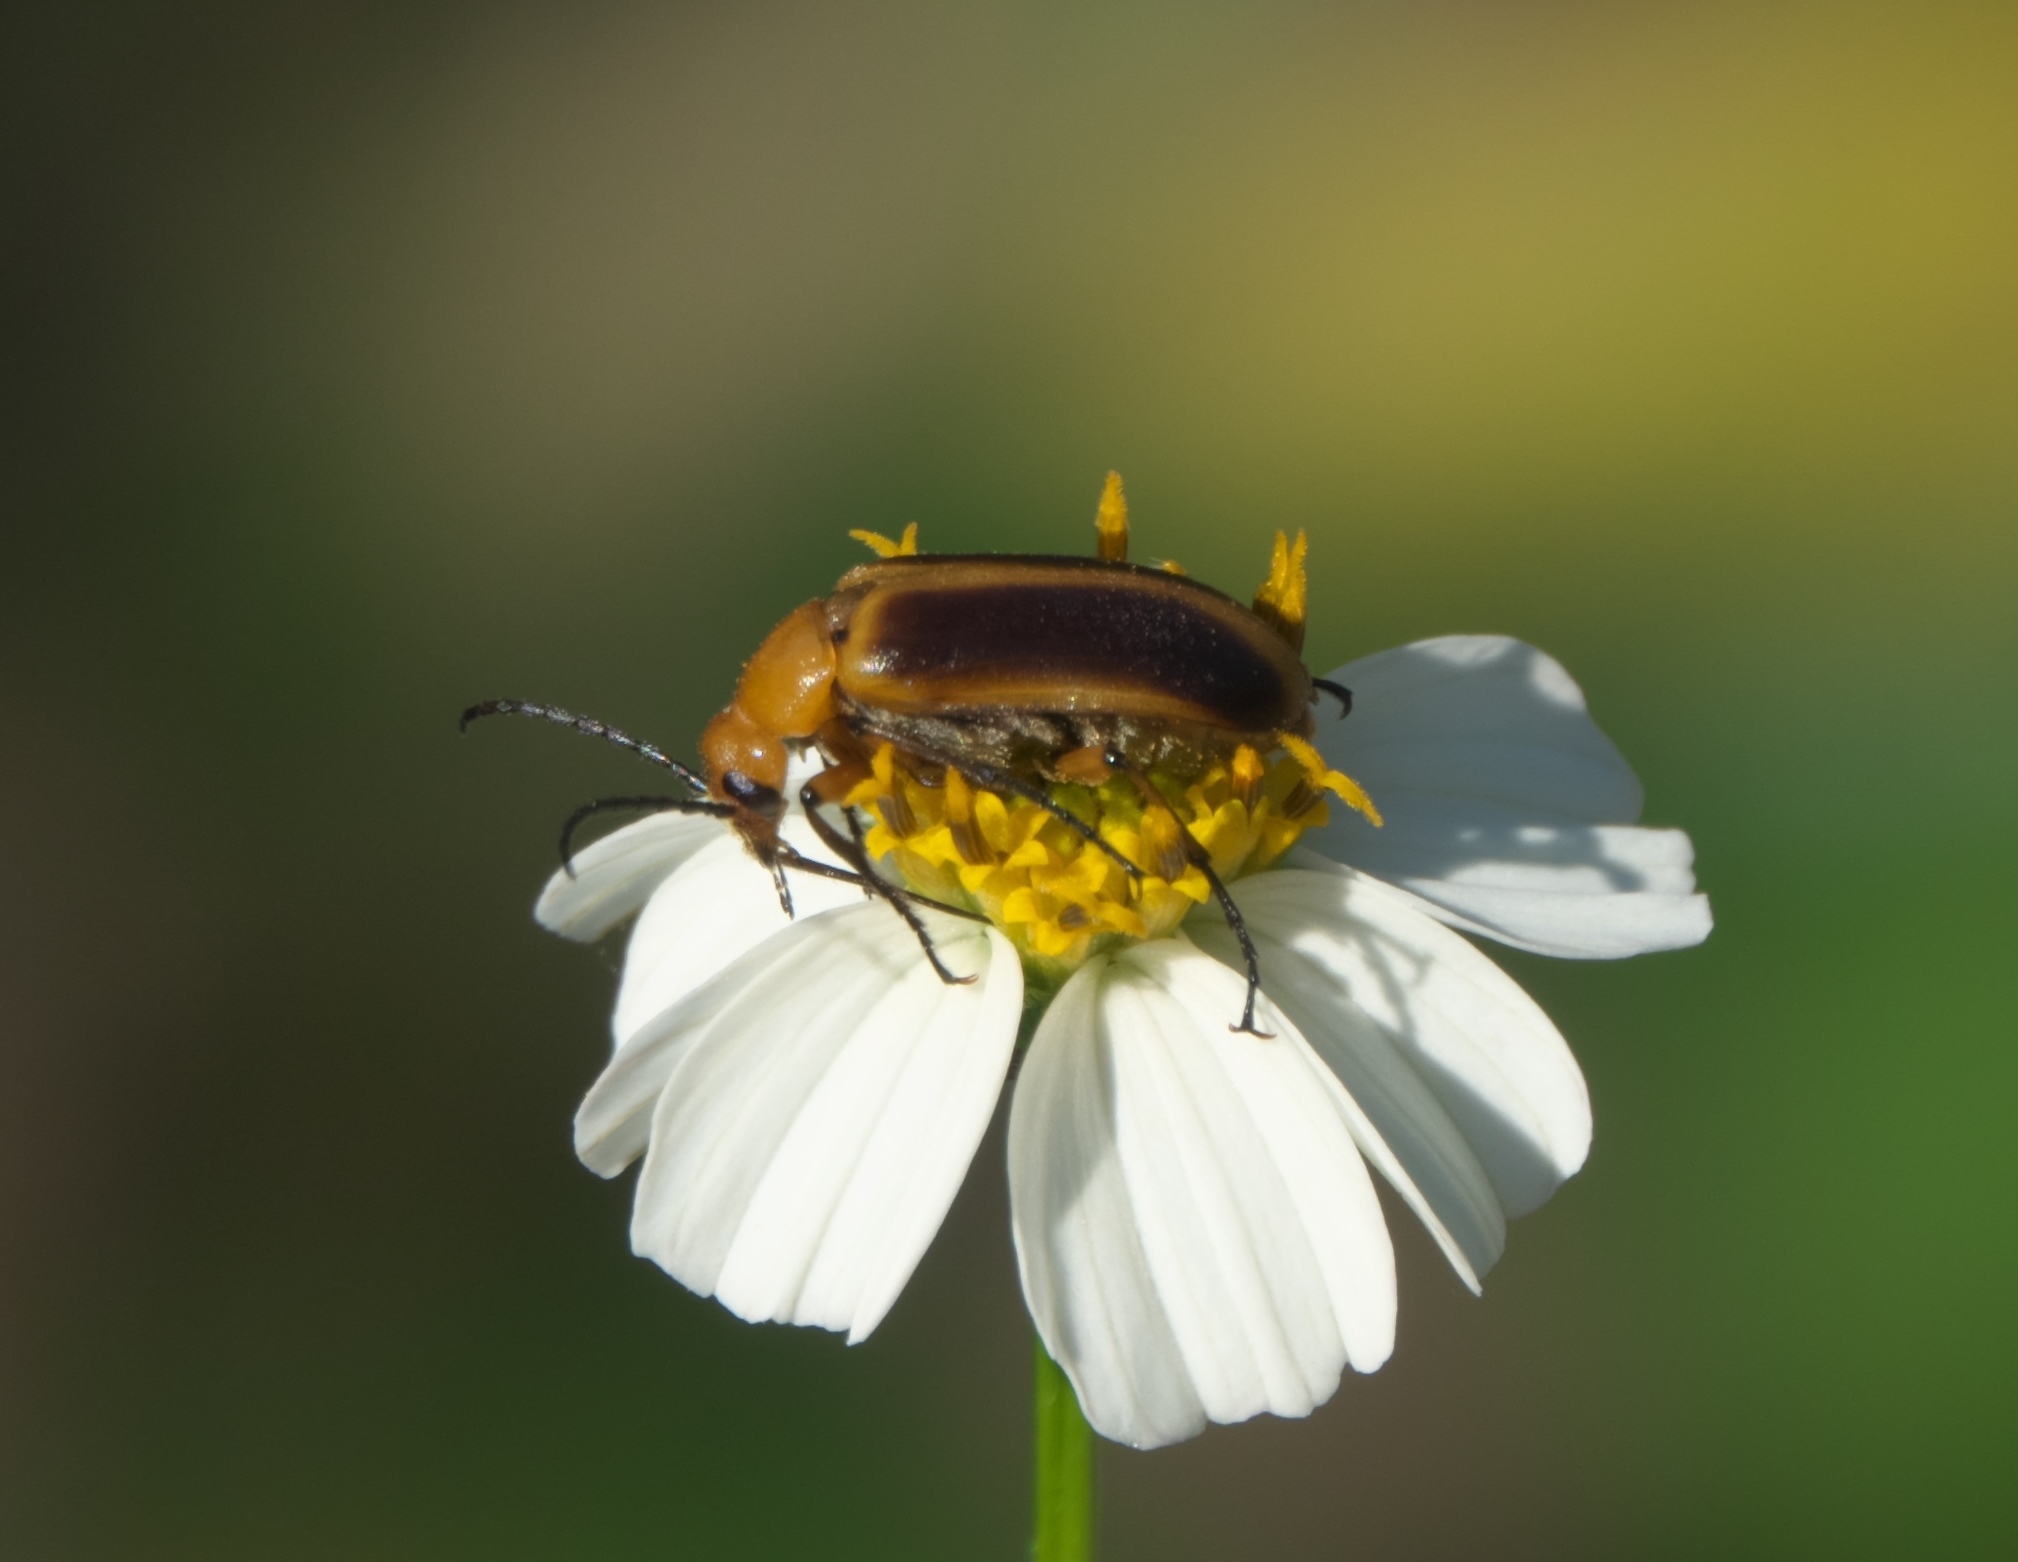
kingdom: Animalia
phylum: Arthropoda
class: Insecta
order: Coleoptera
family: Meloidae
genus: Nemognatha
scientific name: Nemognatha punctulata
